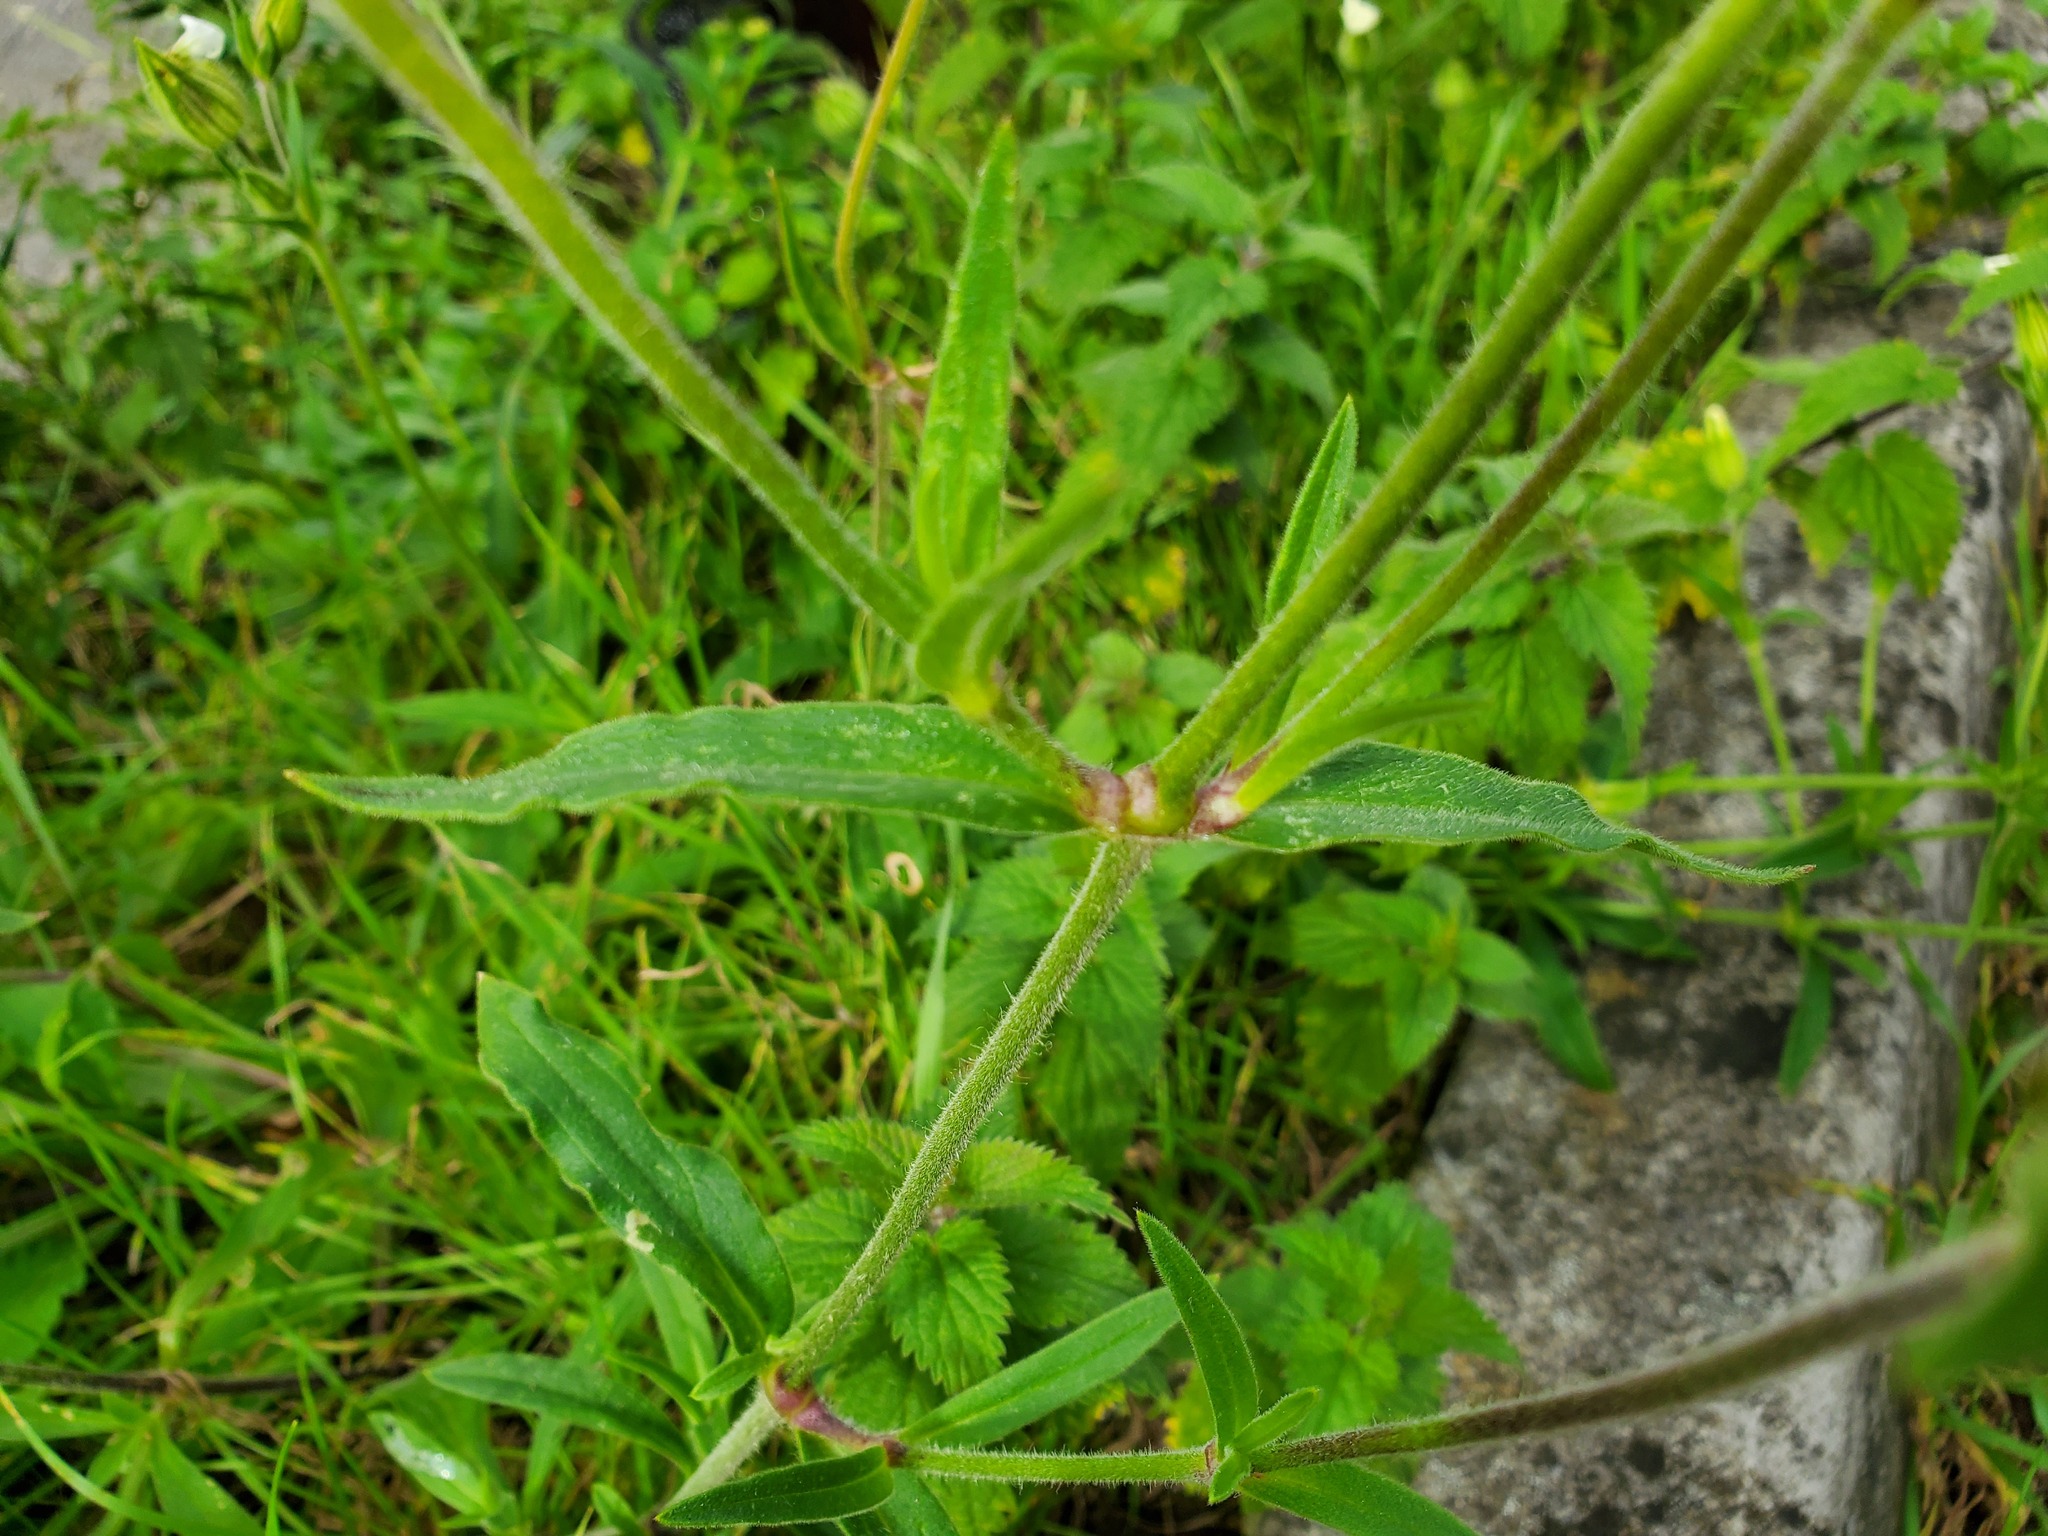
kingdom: Plantae
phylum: Tracheophyta
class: Magnoliopsida
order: Caryophyllales
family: Caryophyllaceae
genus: Silene
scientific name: Silene latifolia
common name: White campion
